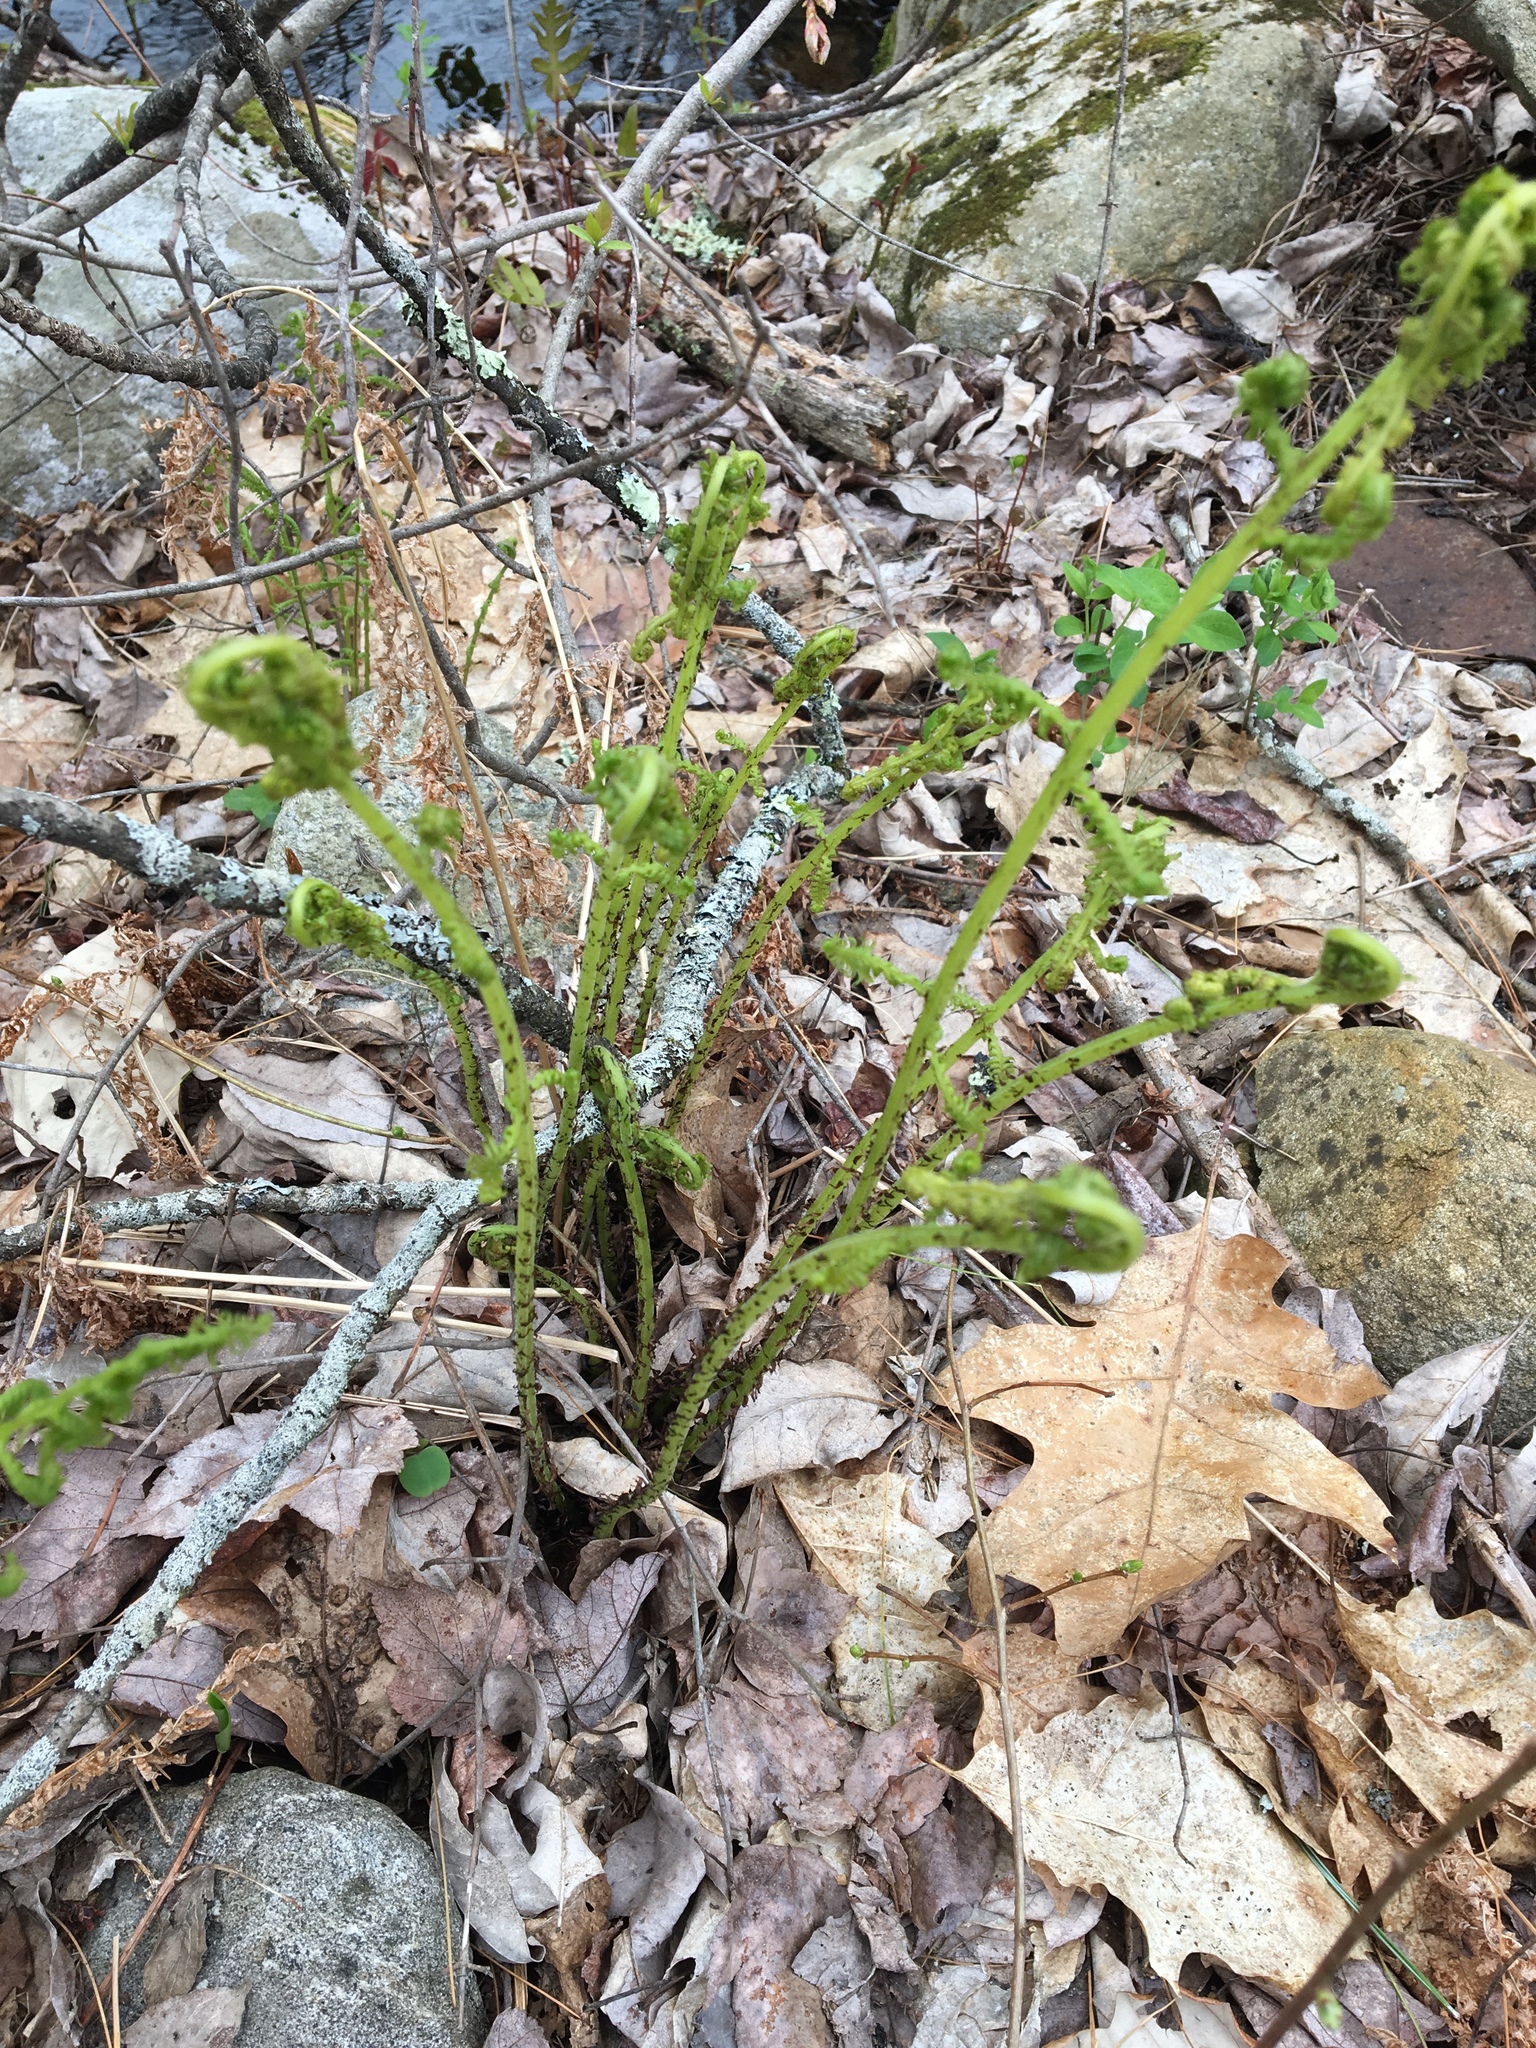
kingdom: Plantae
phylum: Tracheophyta
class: Polypodiopsida
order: Polypodiales
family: Athyriaceae
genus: Athyrium
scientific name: Athyrium angustum
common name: Northern lady fern
